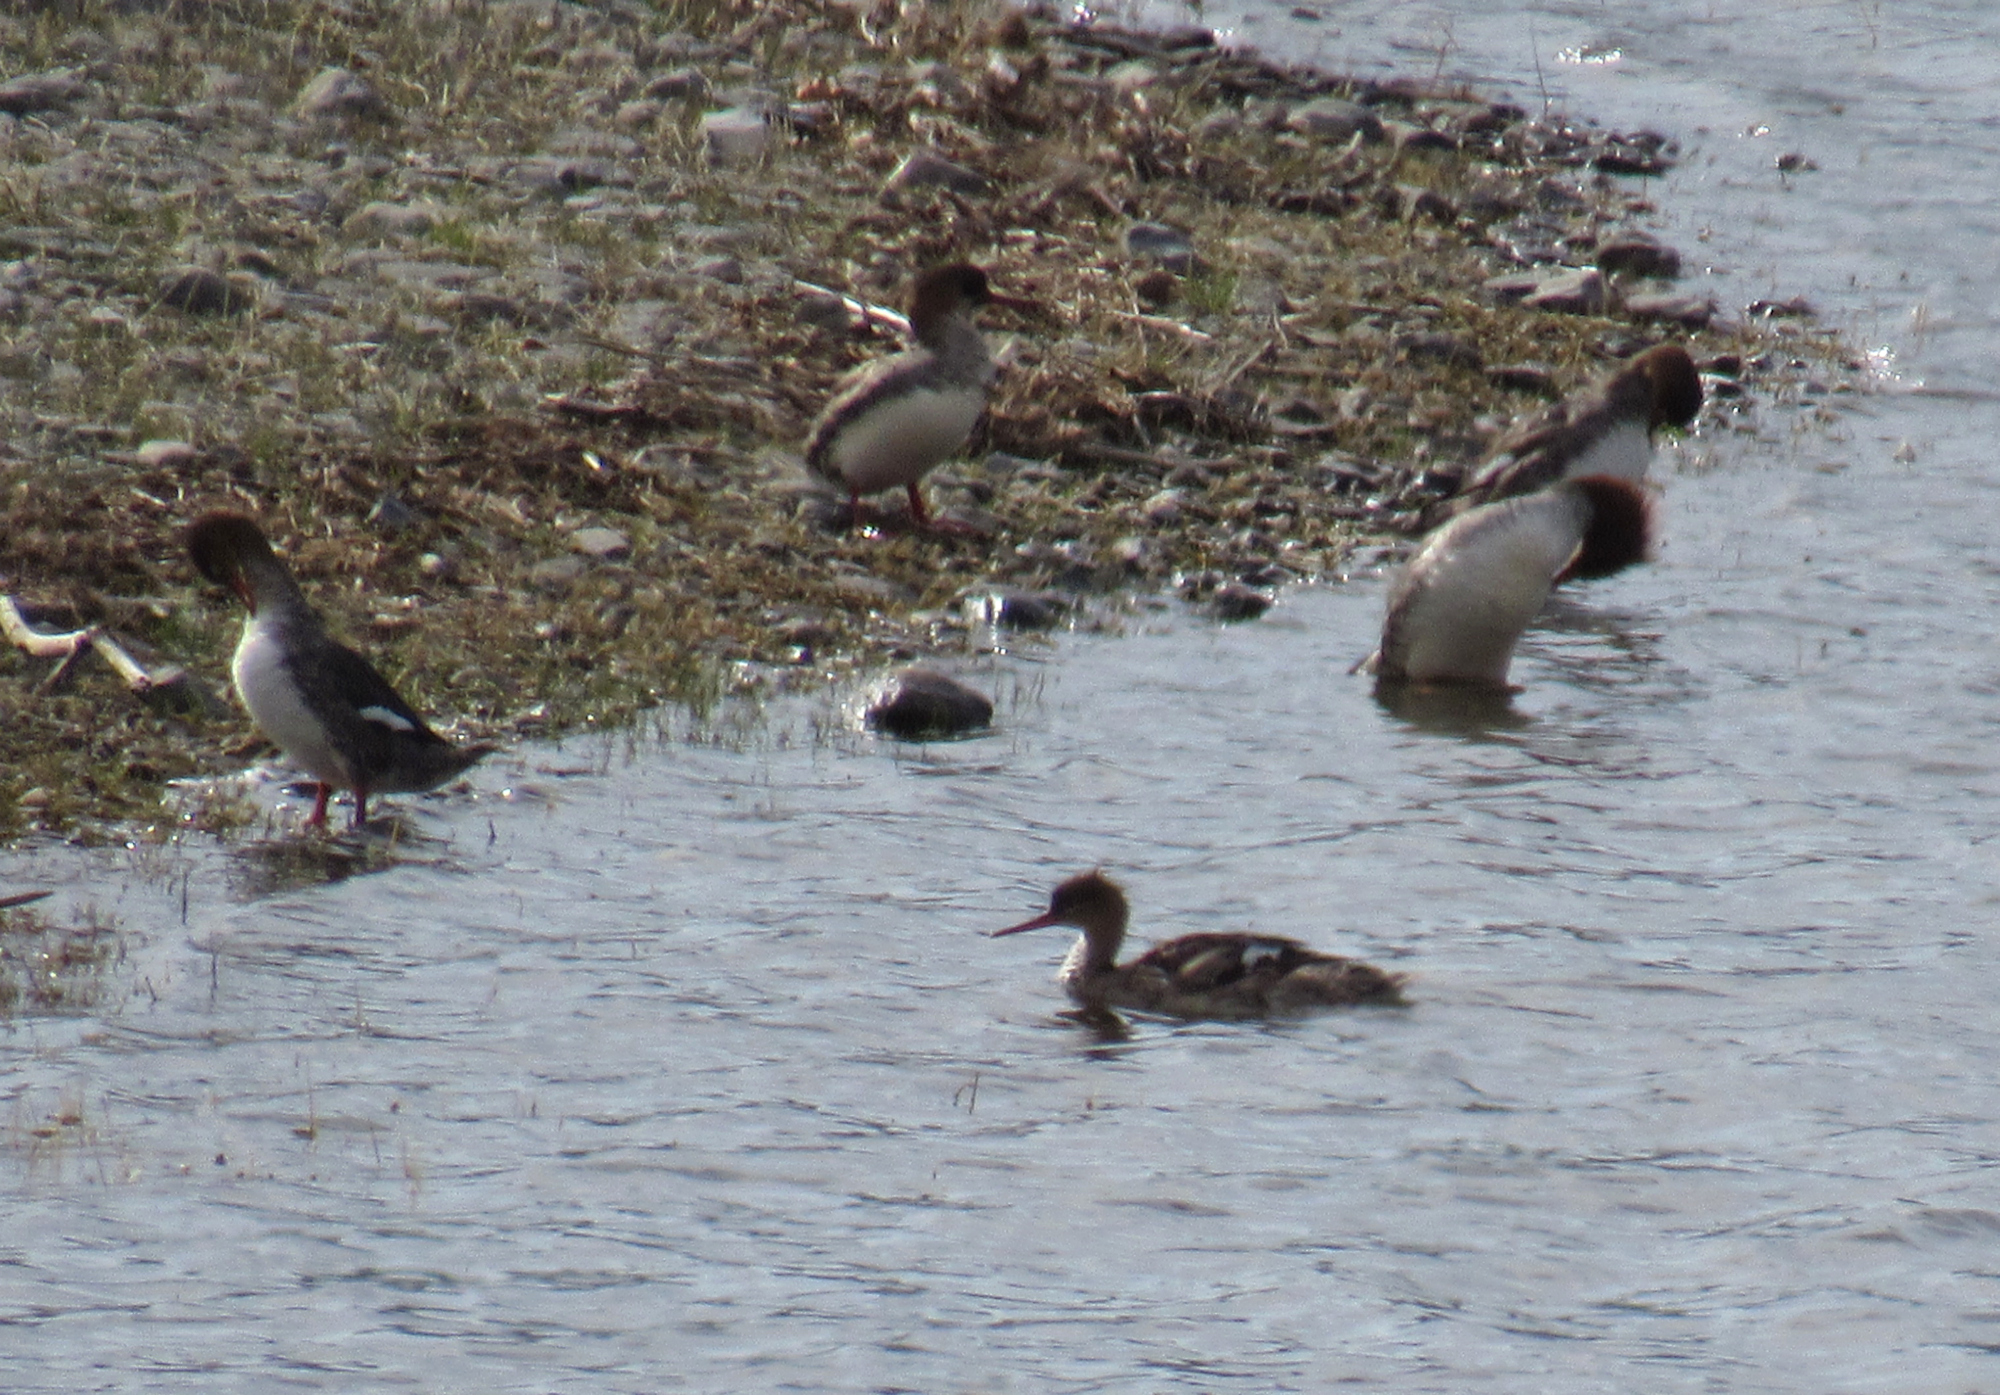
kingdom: Animalia
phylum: Chordata
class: Aves
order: Anseriformes
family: Anatidae
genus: Mergus
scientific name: Mergus serrator
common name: Red-breasted merganser
